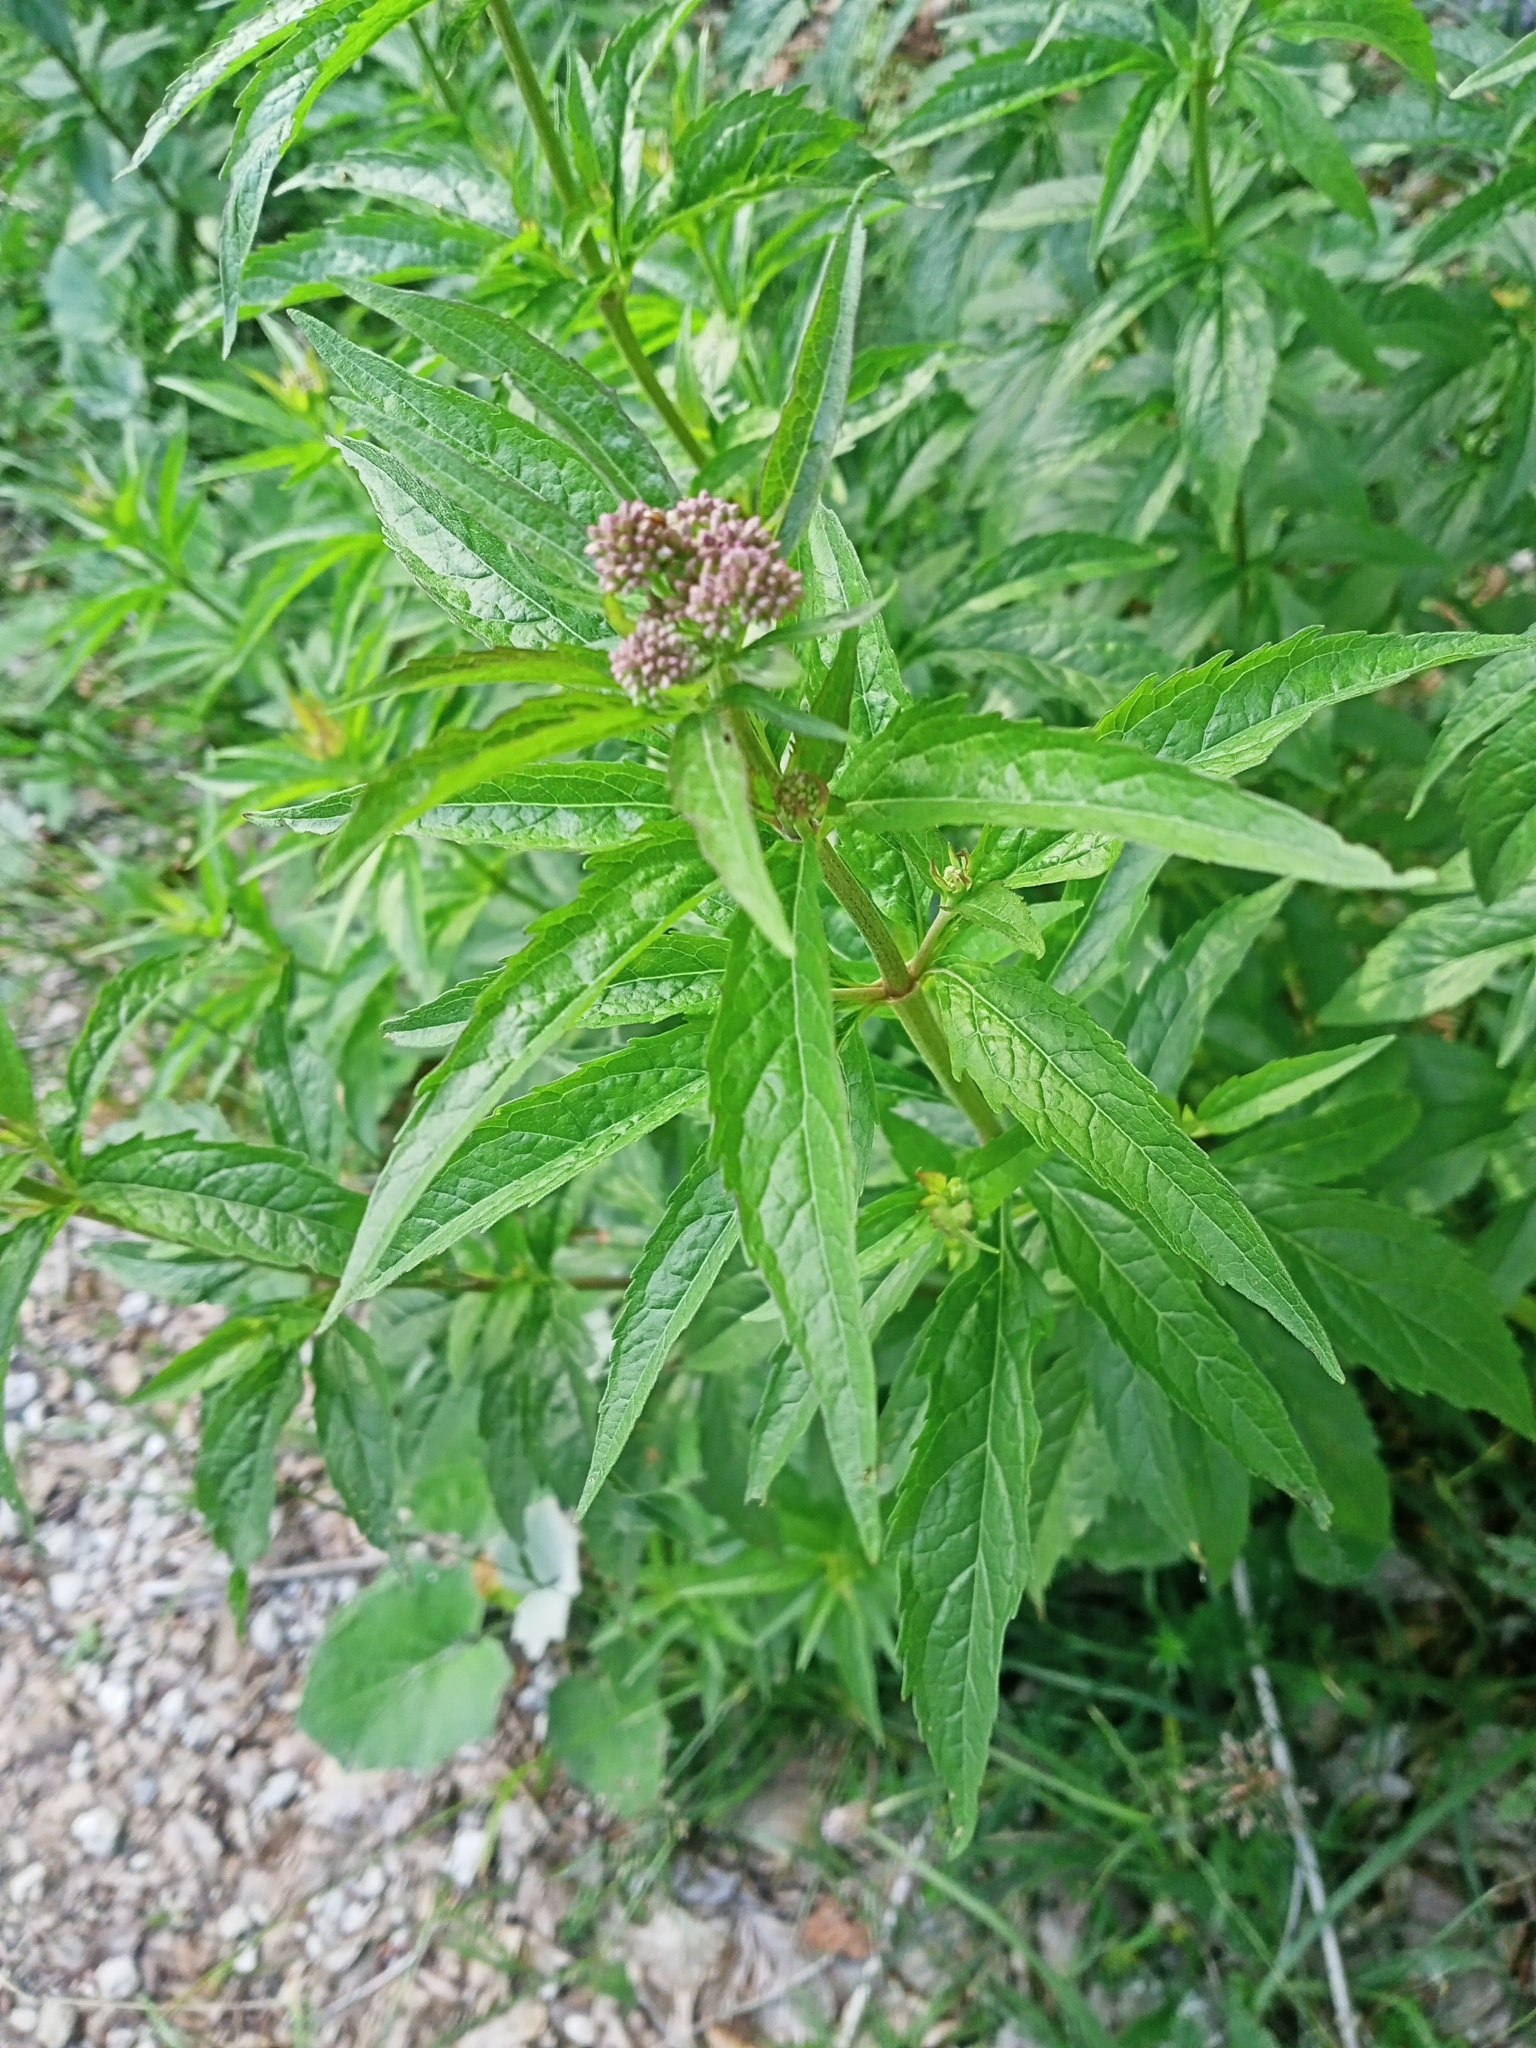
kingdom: Plantae
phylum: Tracheophyta
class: Magnoliopsida
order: Asterales
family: Asteraceae
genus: Eupatorium
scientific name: Eupatorium cannabinum
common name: Hemp-agrimony
